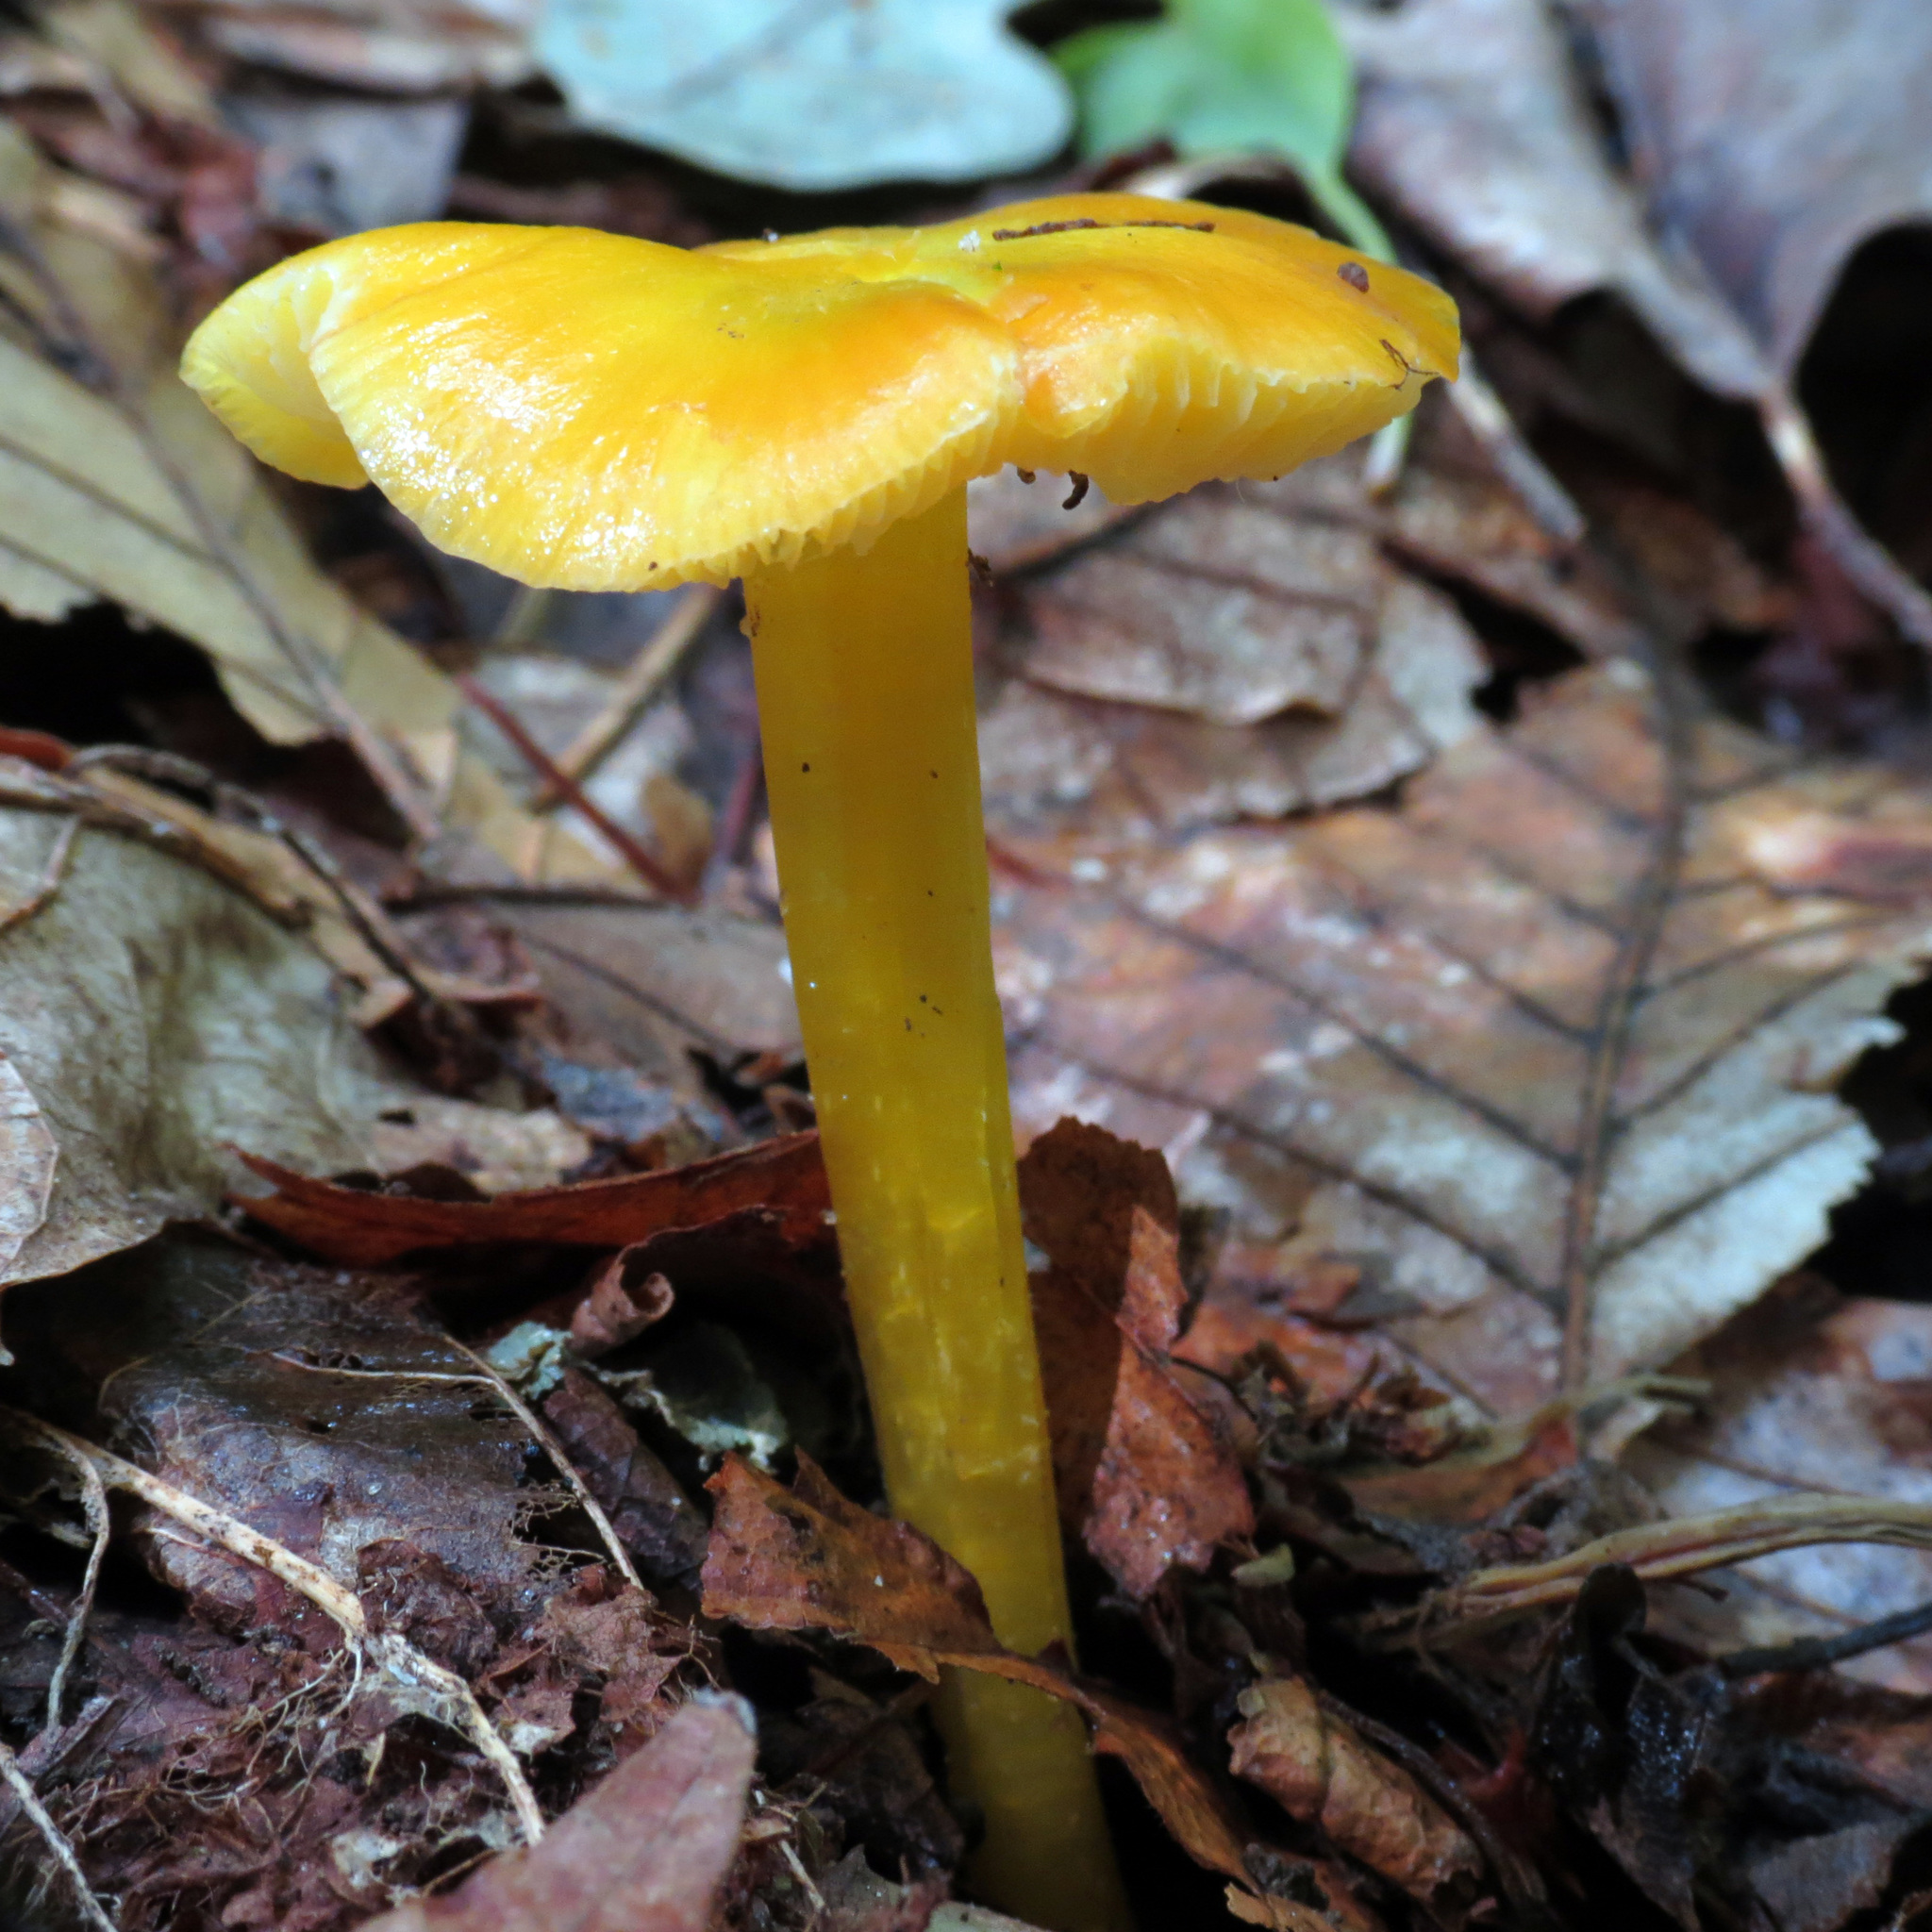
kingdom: Fungi
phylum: Basidiomycota
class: Agaricomycetes
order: Agaricales
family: Hygrophoraceae
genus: Hygrocybe
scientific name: Hygrocybe flavescens
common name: Golden waxy cap
